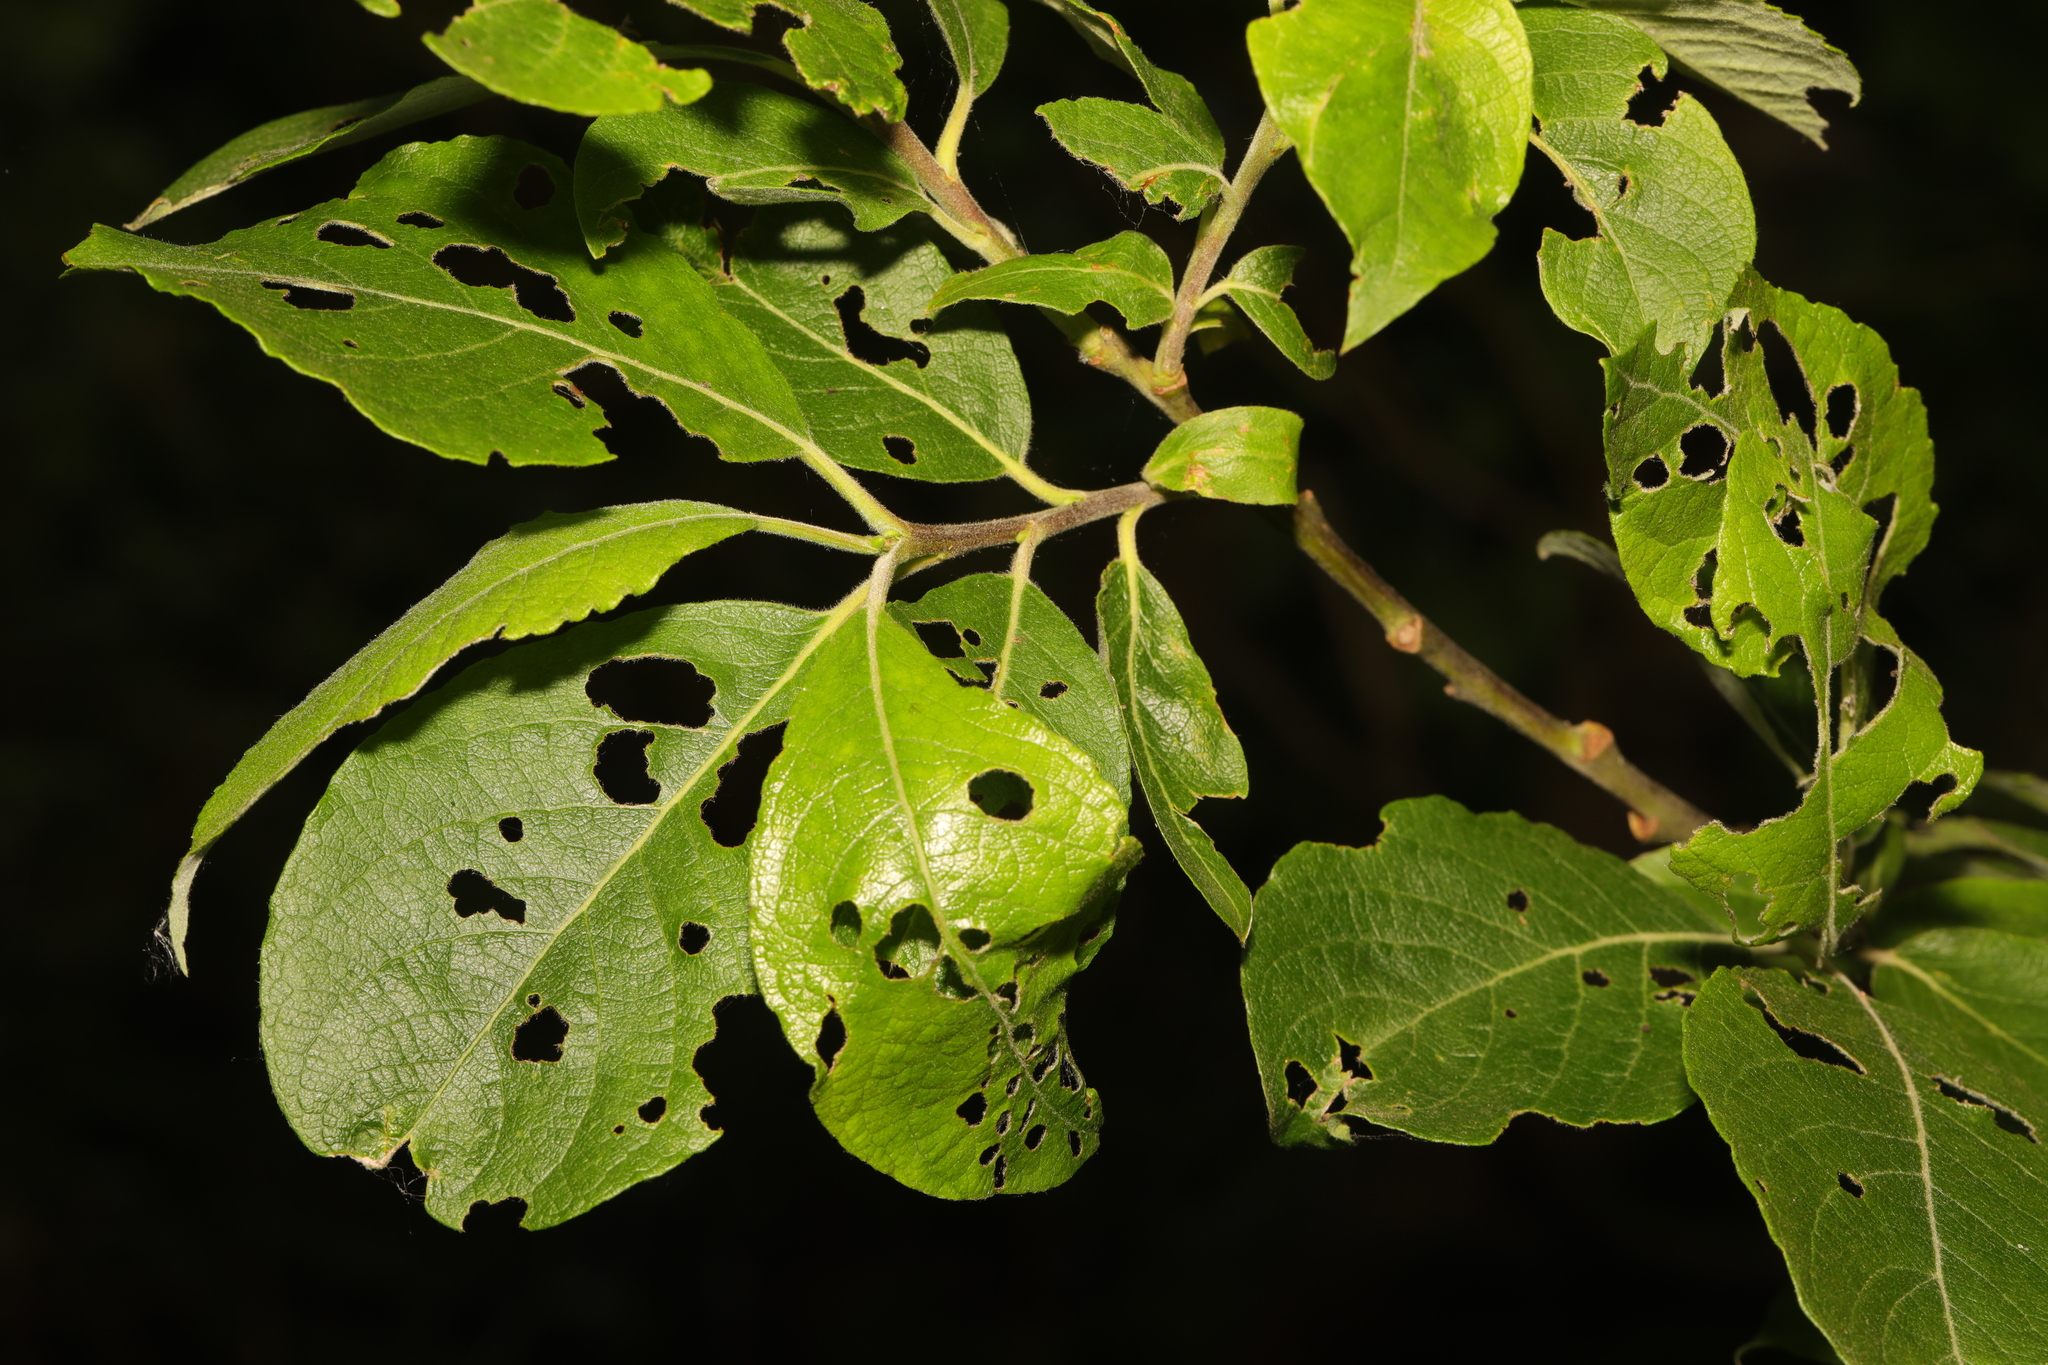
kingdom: Plantae
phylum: Tracheophyta
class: Magnoliopsida
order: Malpighiales
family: Salicaceae
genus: Salix
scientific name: Salix caprea
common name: Goat willow
